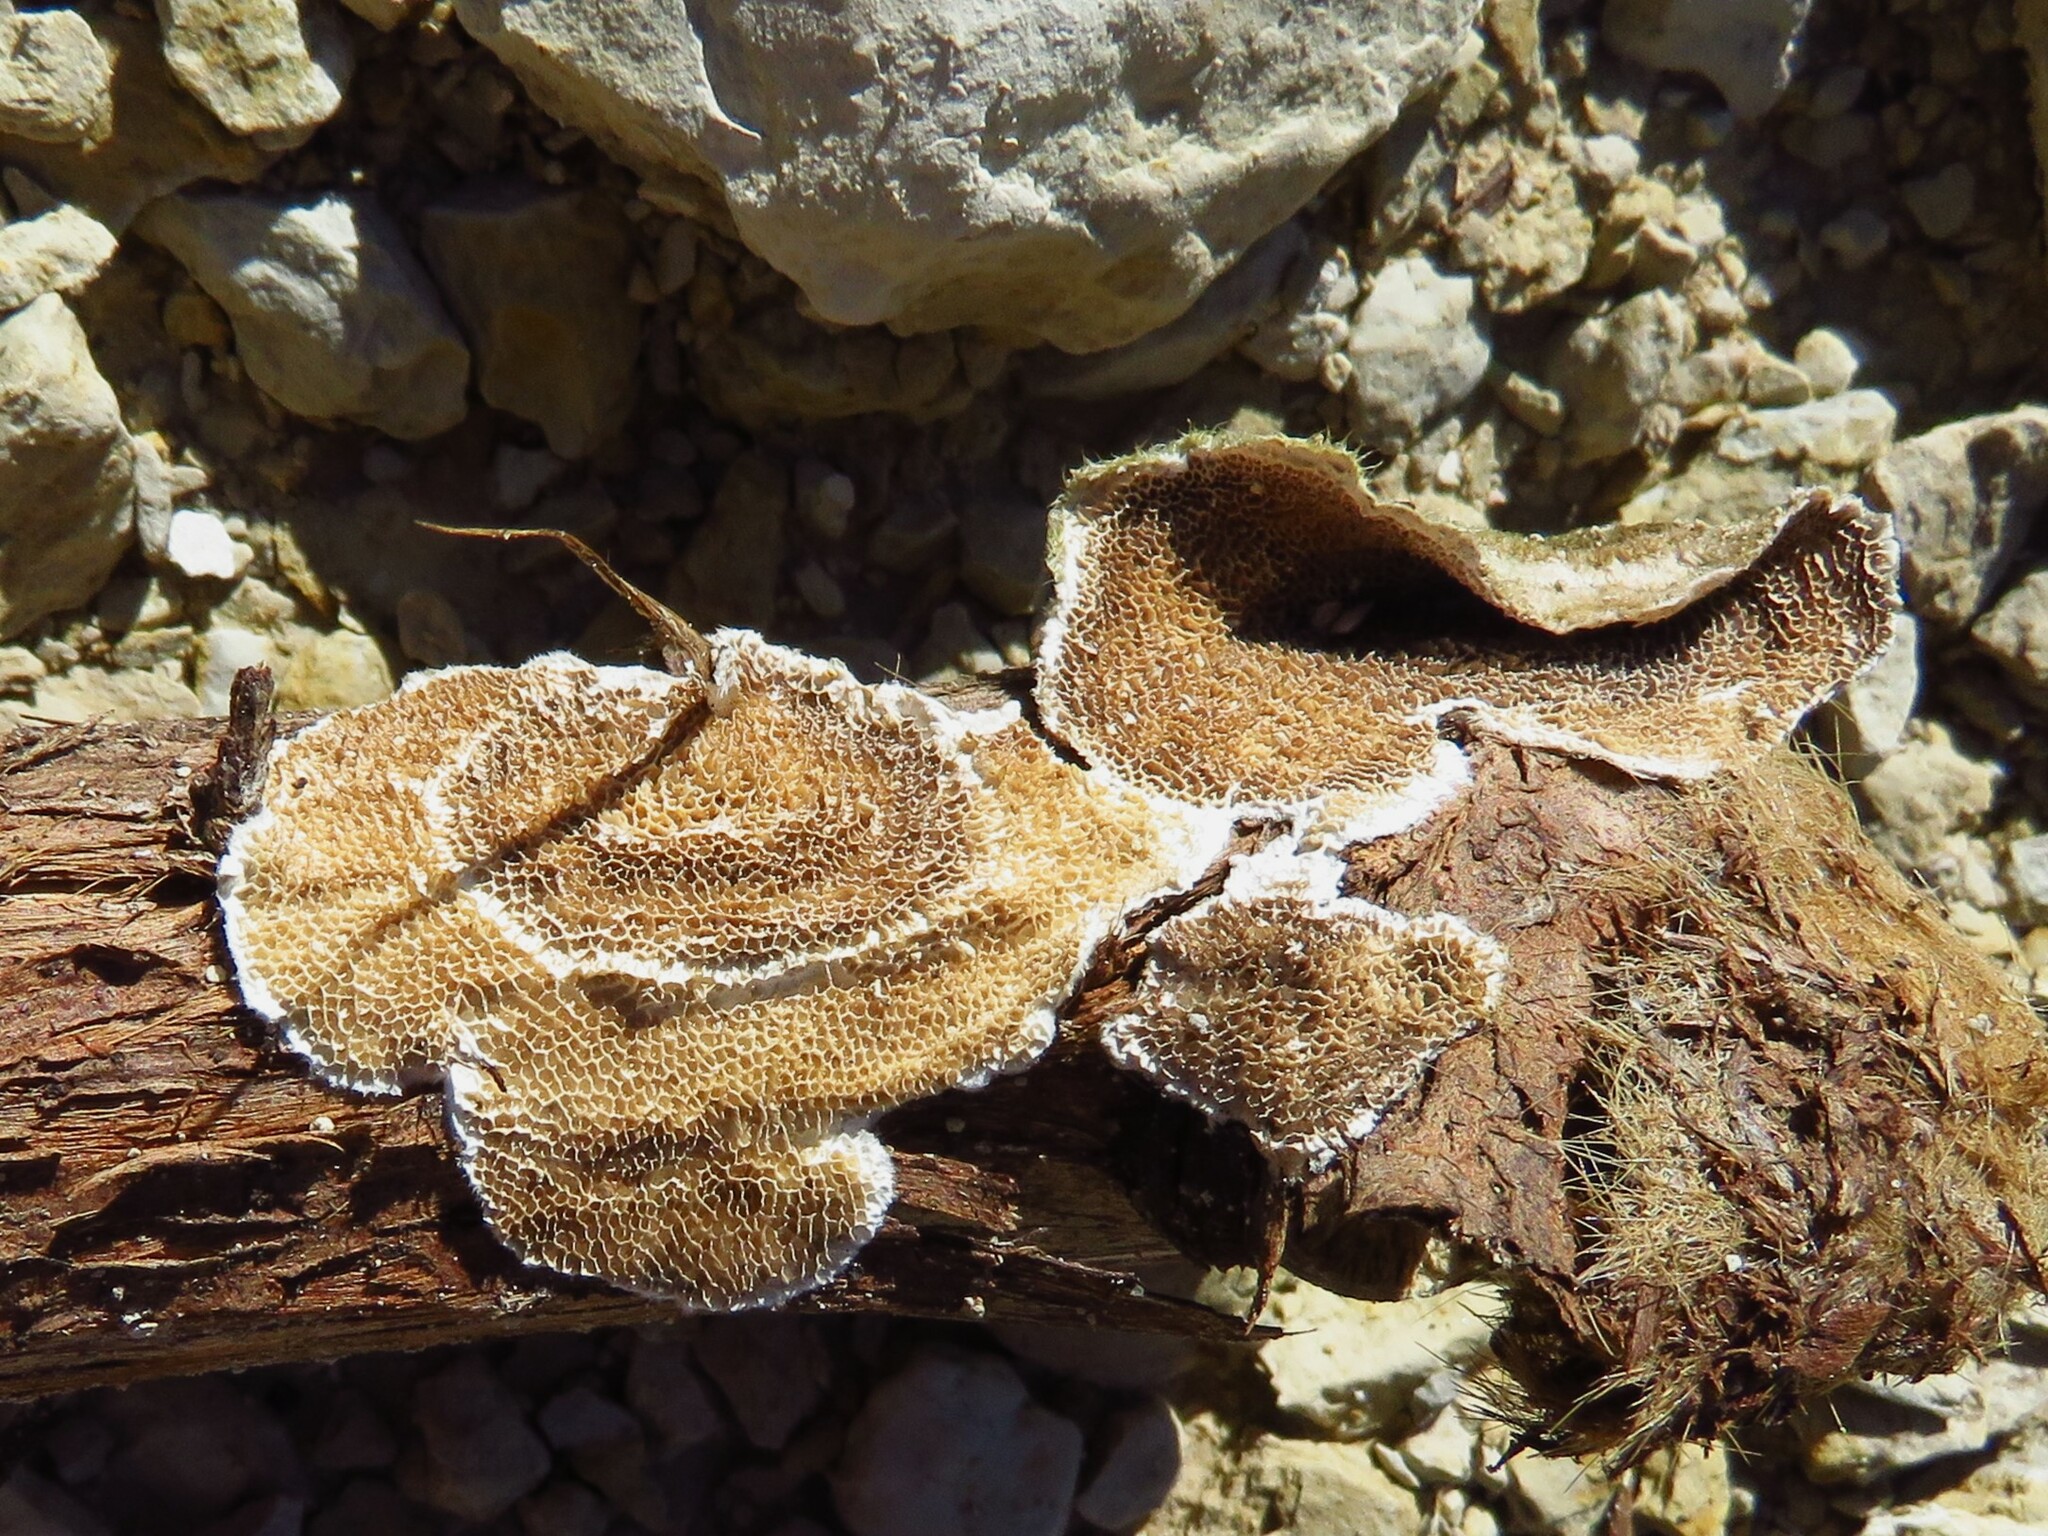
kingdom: Fungi
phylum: Basidiomycota
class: Agaricomycetes
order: Polyporales
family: Polyporaceae
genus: Trametes
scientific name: Trametes villosa
